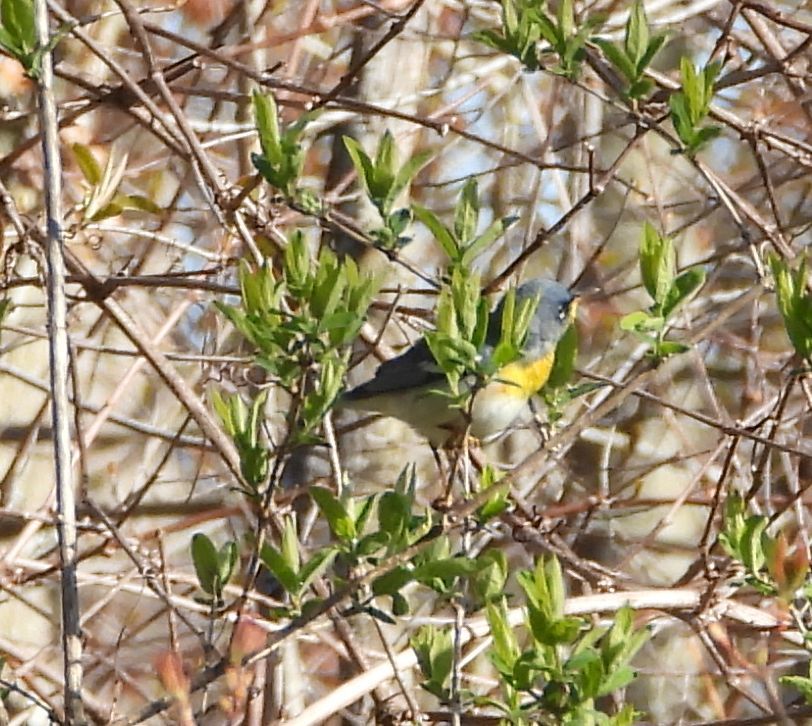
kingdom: Animalia
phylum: Chordata
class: Aves
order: Passeriformes
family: Parulidae
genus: Setophaga
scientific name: Setophaga americana
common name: Northern parula
